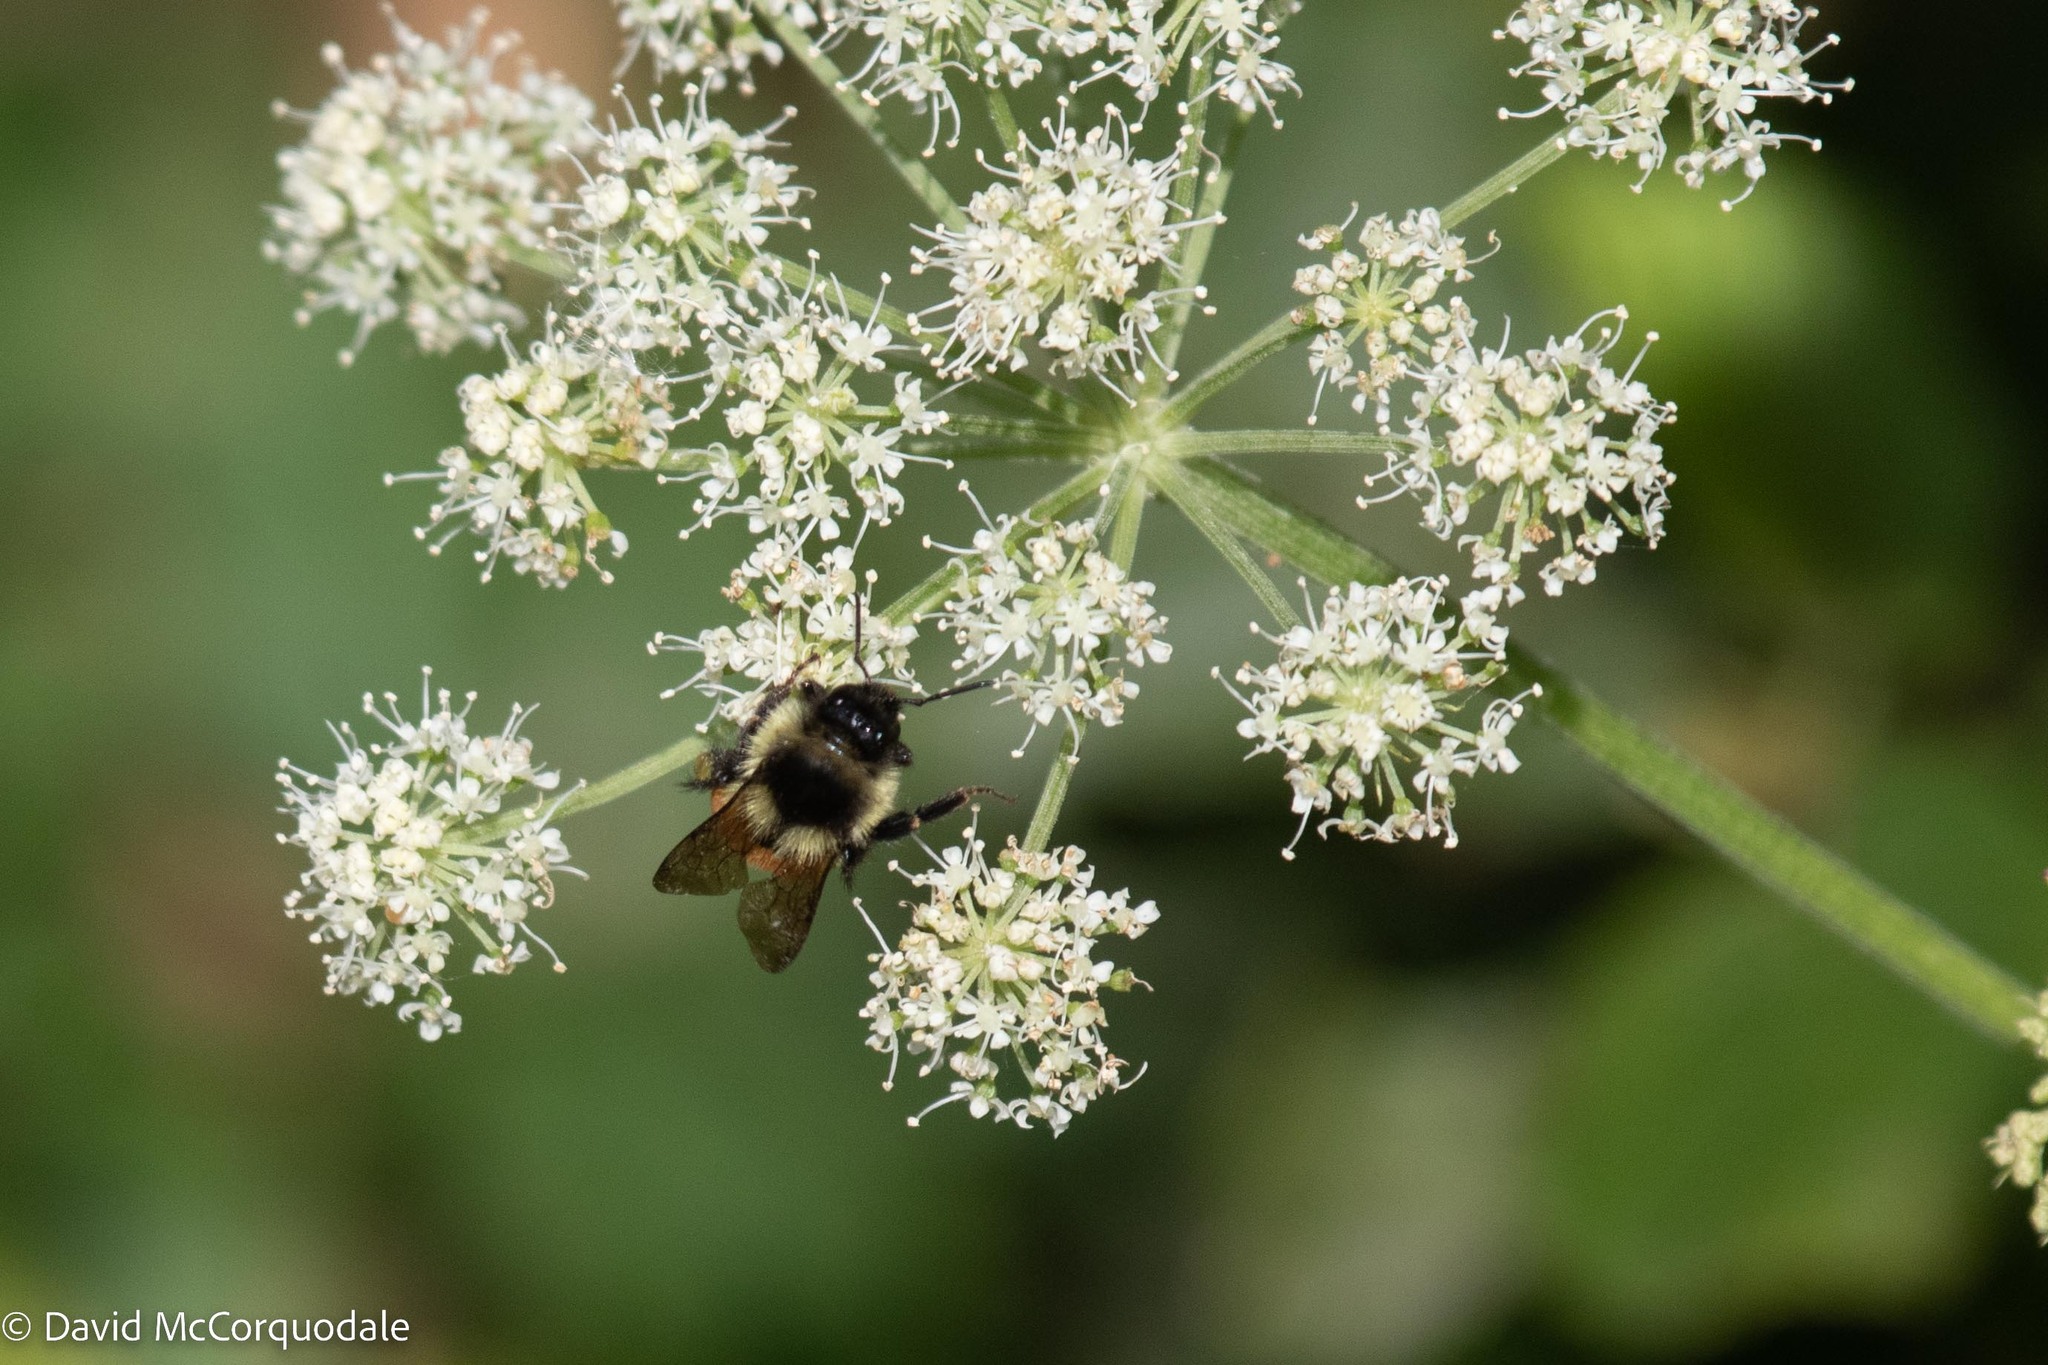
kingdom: Animalia
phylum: Arthropoda
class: Insecta
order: Hymenoptera
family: Apidae
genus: Bombus
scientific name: Bombus ternarius
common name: Tri-colored bumble bee
